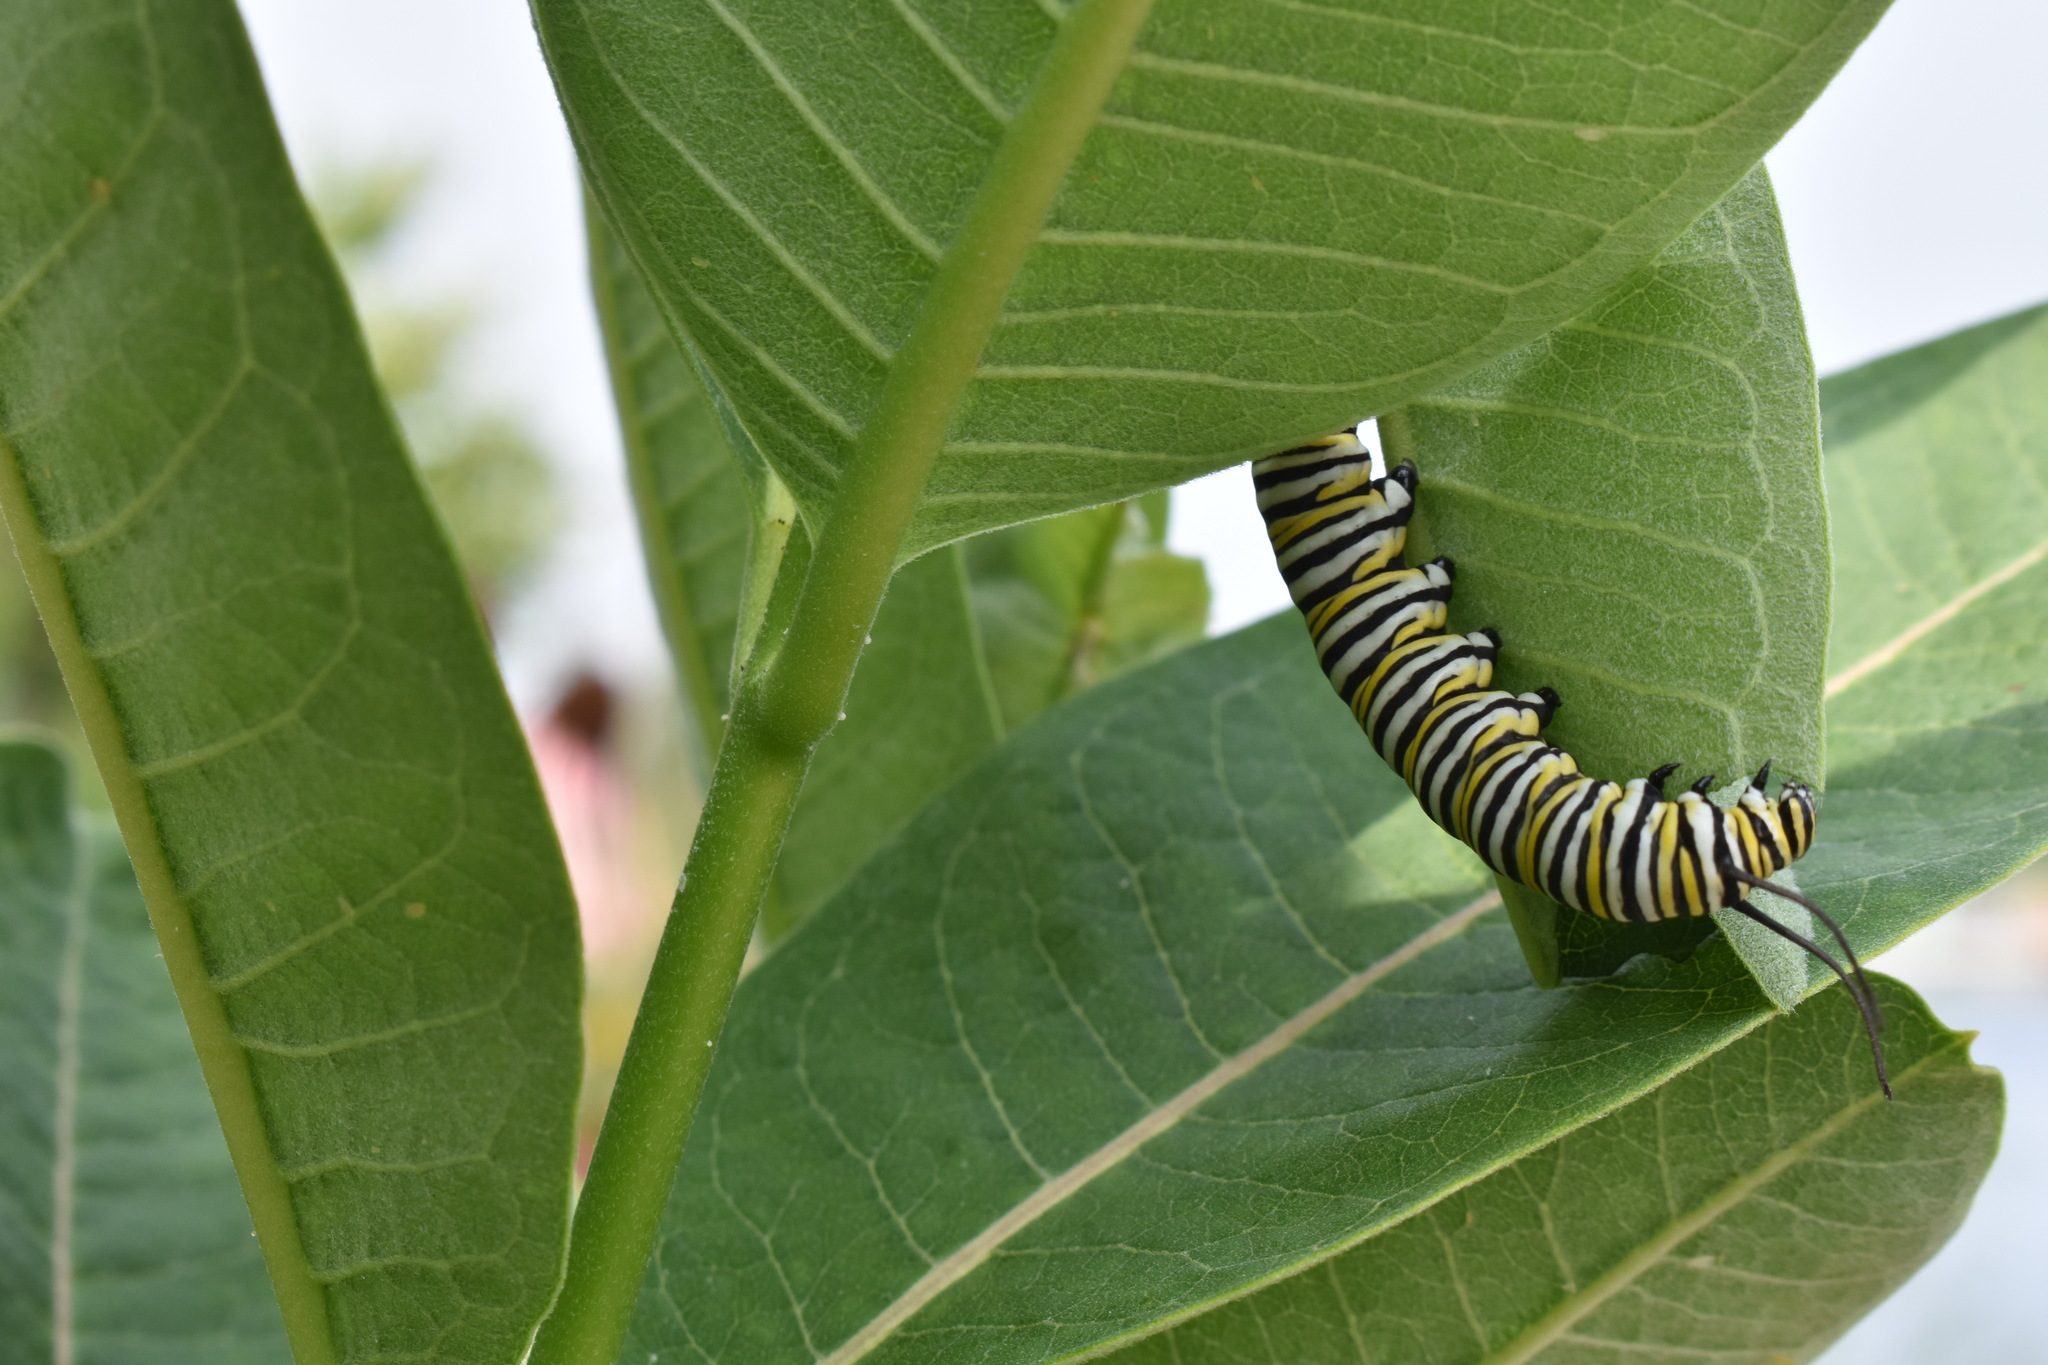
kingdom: Animalia
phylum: Arthropoda
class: Insecta
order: Lepidoptera
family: Nymphalidae
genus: Danaus
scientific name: Danaus plexippus
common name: Monarch
